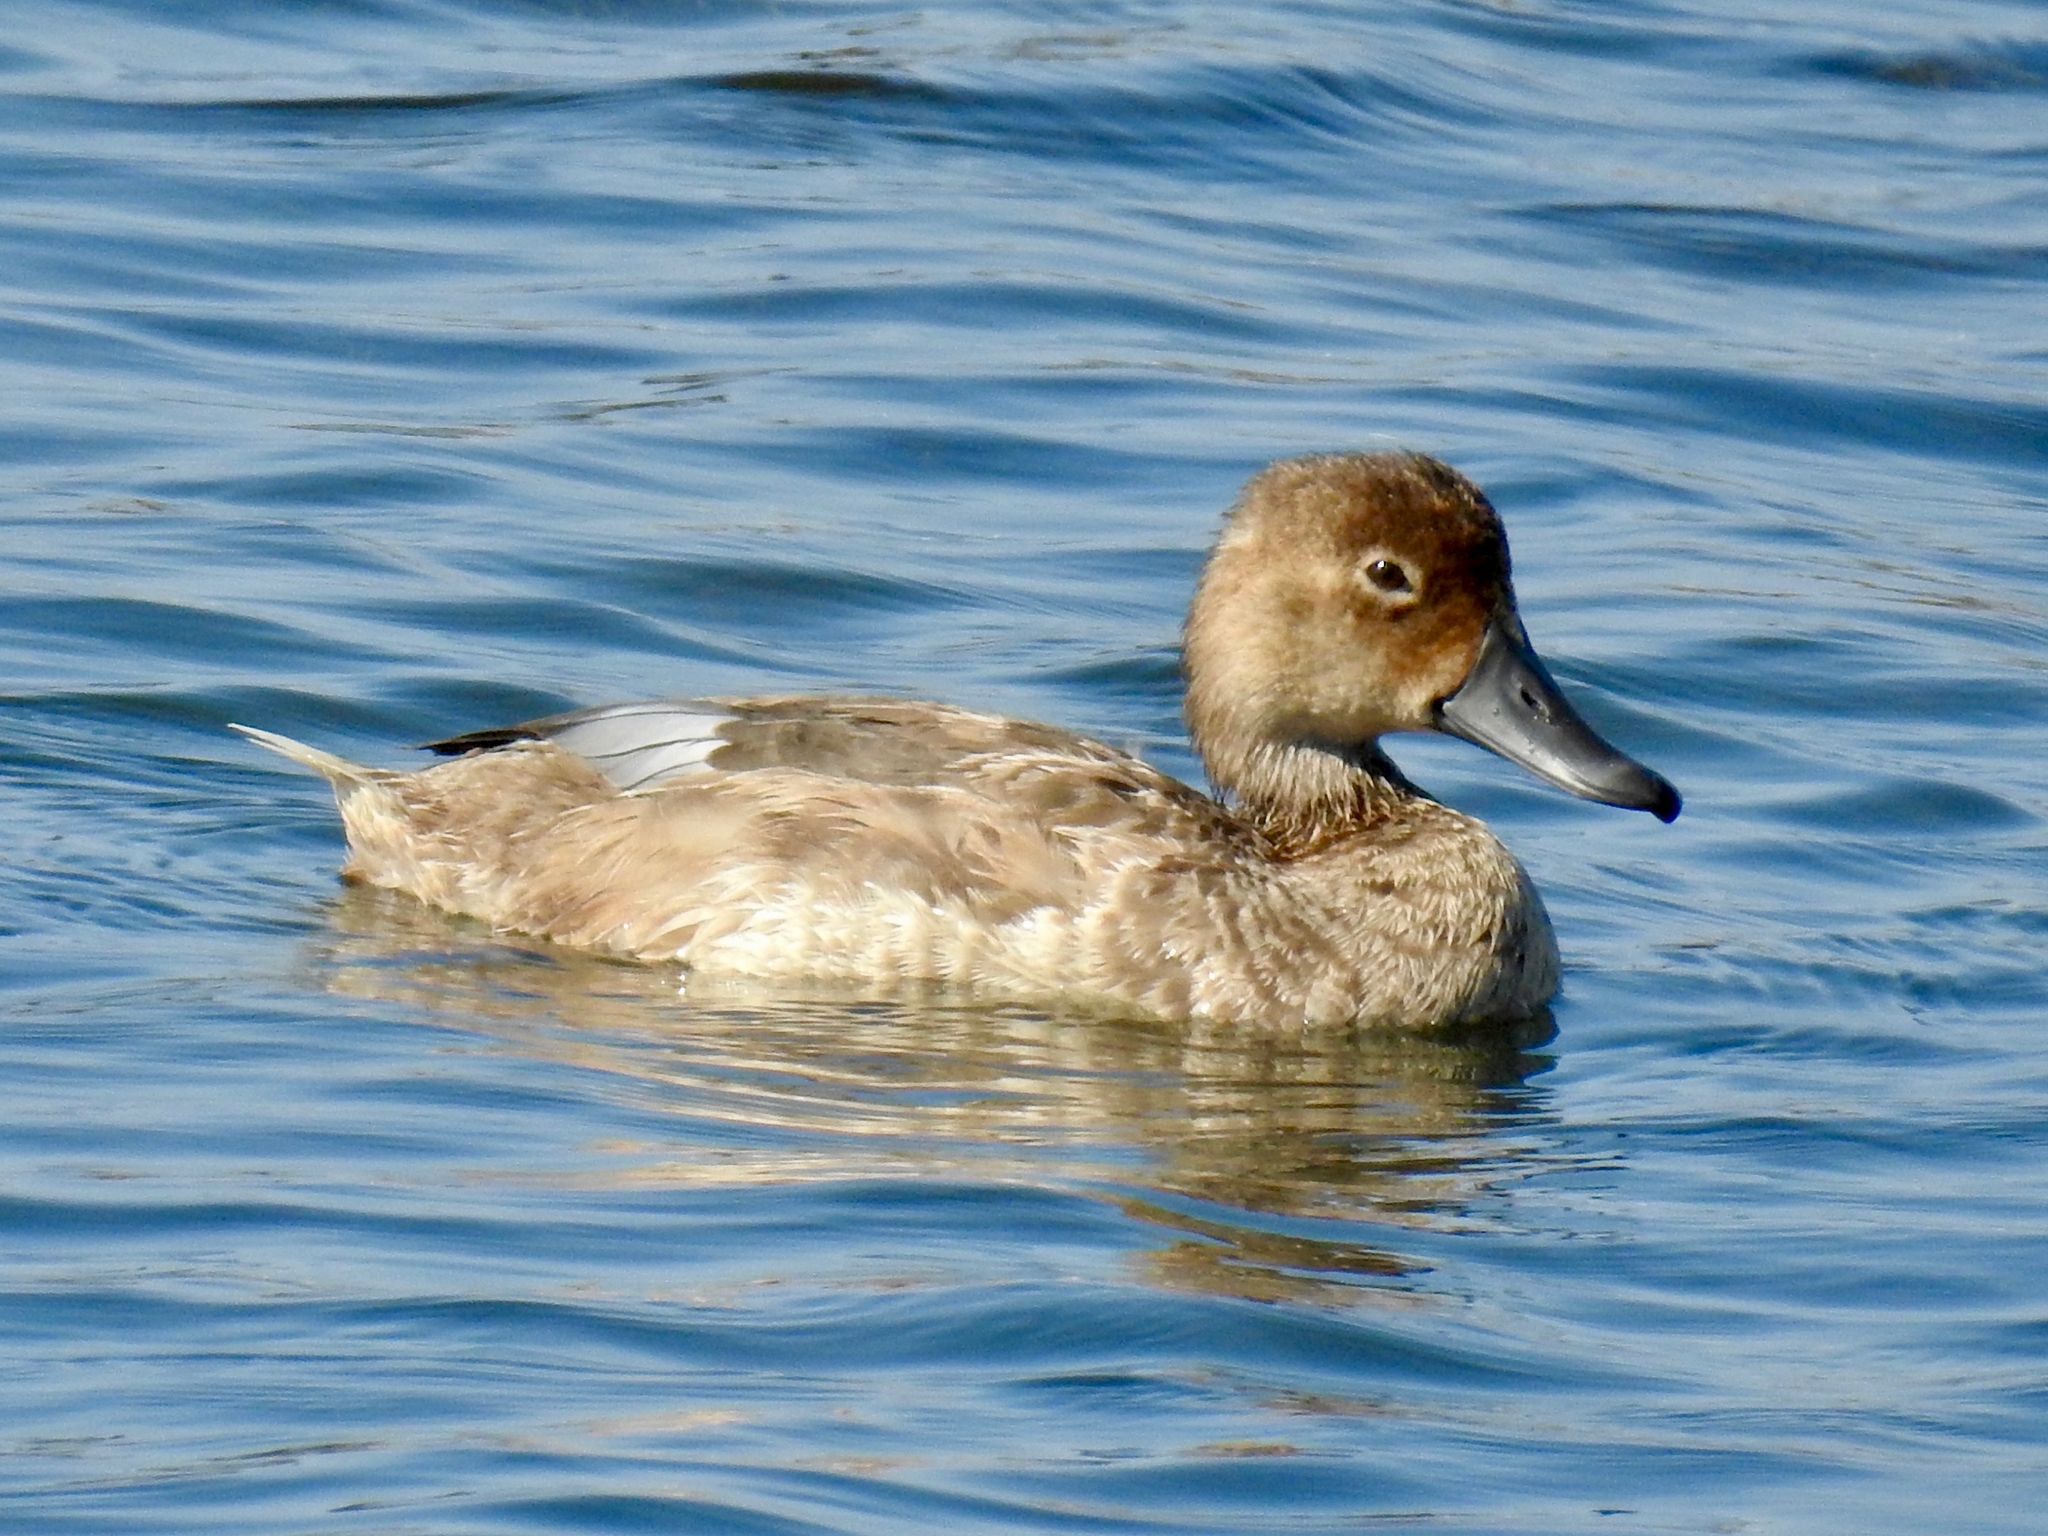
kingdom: Animalia
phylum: Chordata
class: Aves
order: Anseriformes
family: Anatidae
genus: Aythya
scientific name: Aythya americana
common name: Redhead
